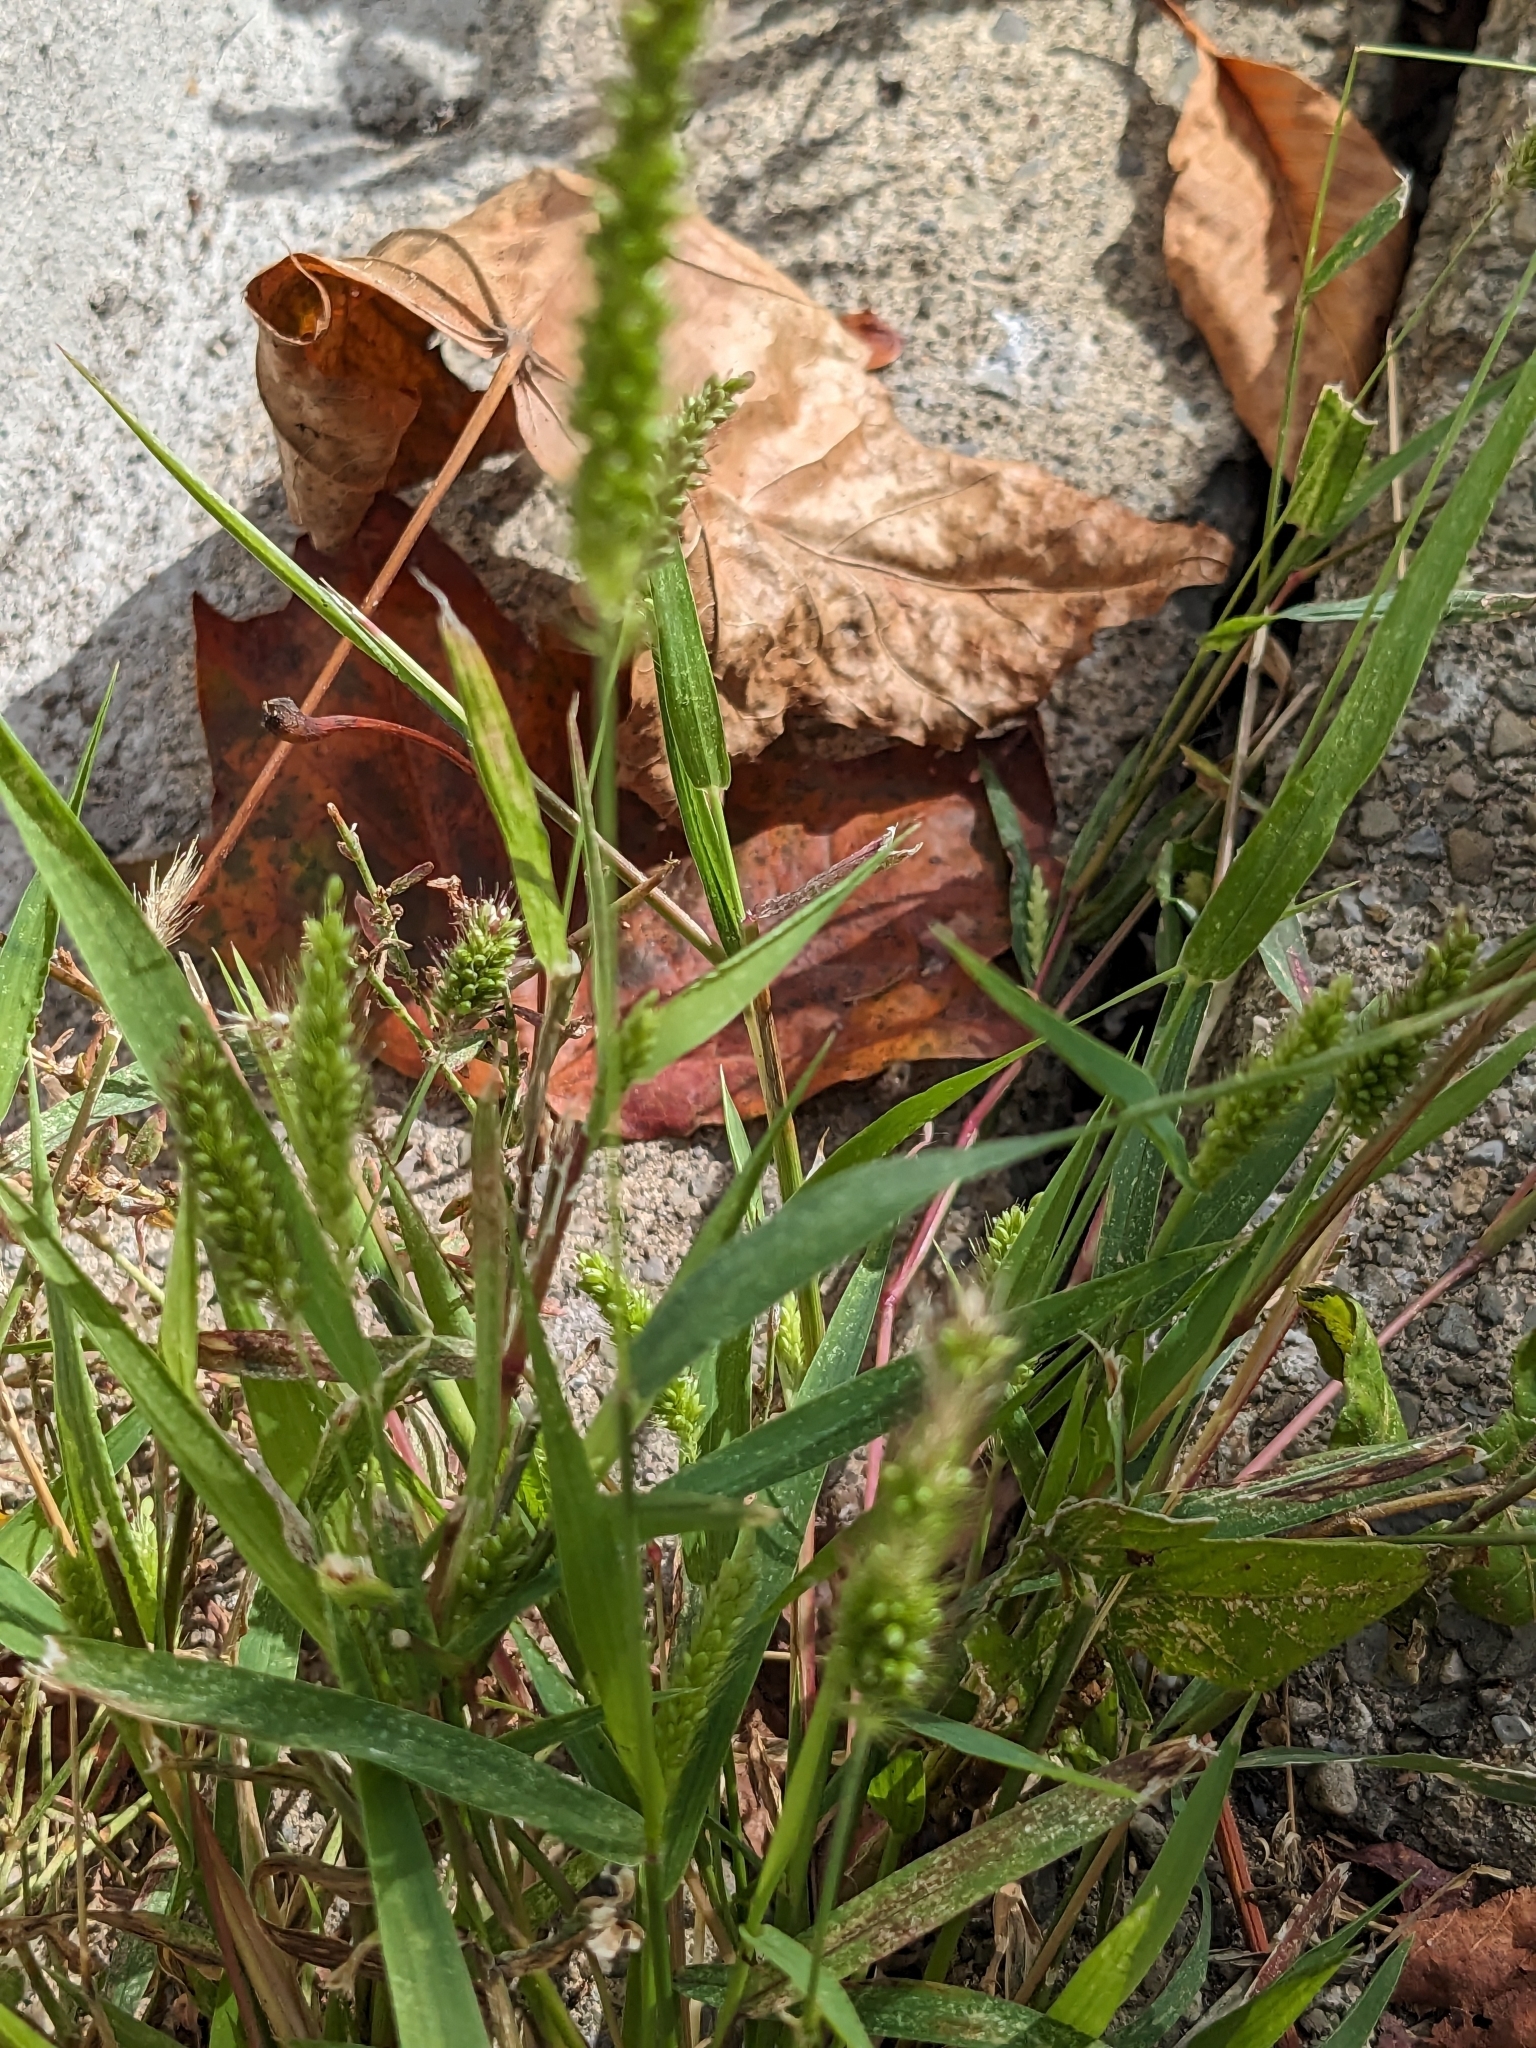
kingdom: Plantae
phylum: Tracheophyta
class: Liliopsida
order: Poales
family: Poaceae
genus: Setaria
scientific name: Setaria pumila
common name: Yellow bristle-grass
